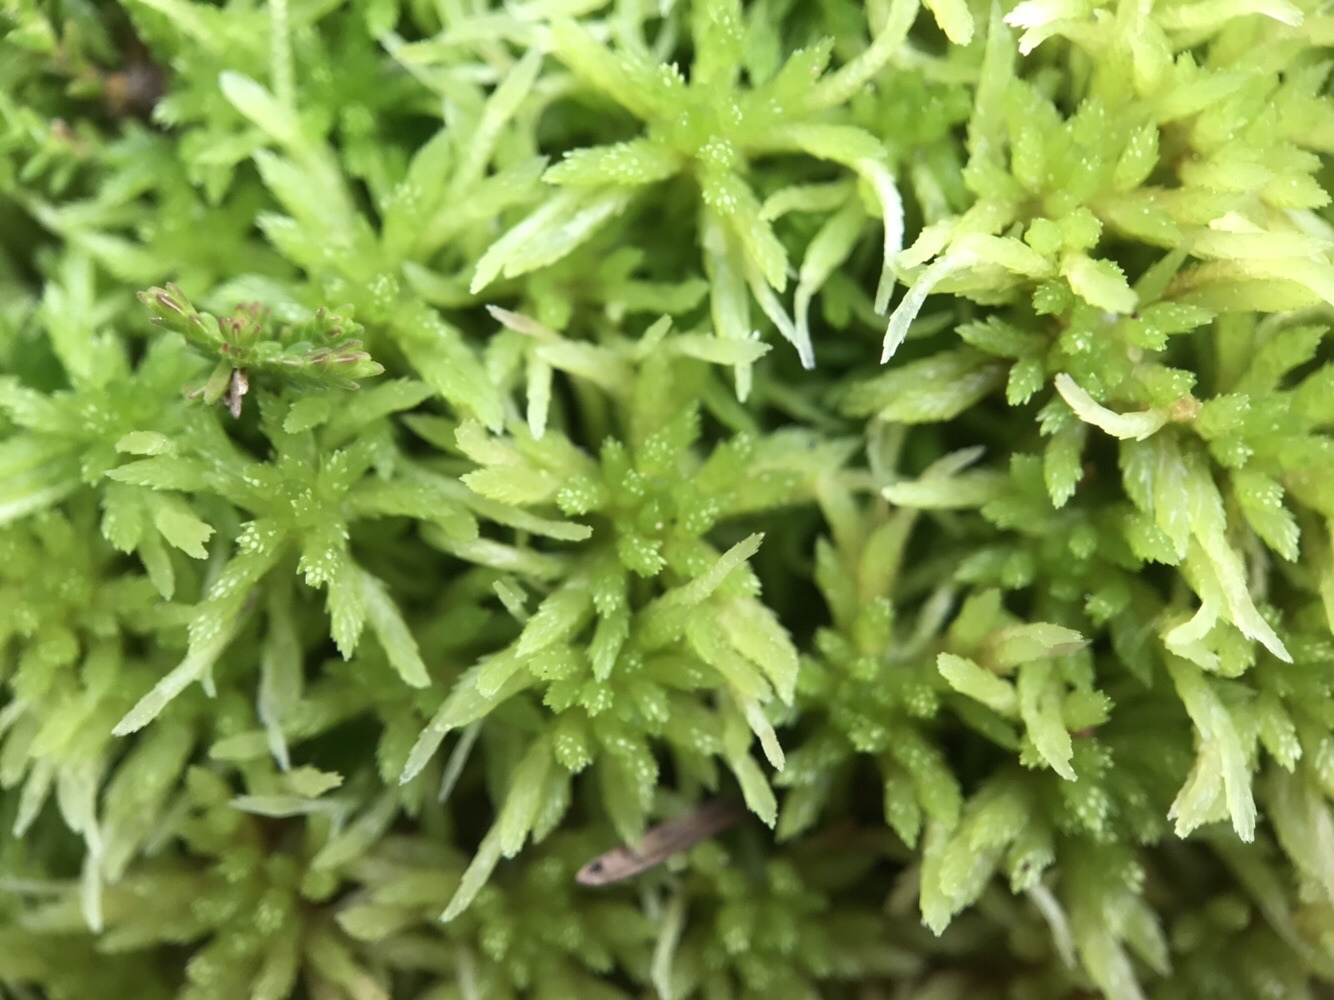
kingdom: Plantae
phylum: Bryophyta
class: Sphagnopsida
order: Sphagnales
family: Sphagnaceae
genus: Sphagnum
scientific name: Sphagnum girgensohnii
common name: Girgensohn's peat moss
